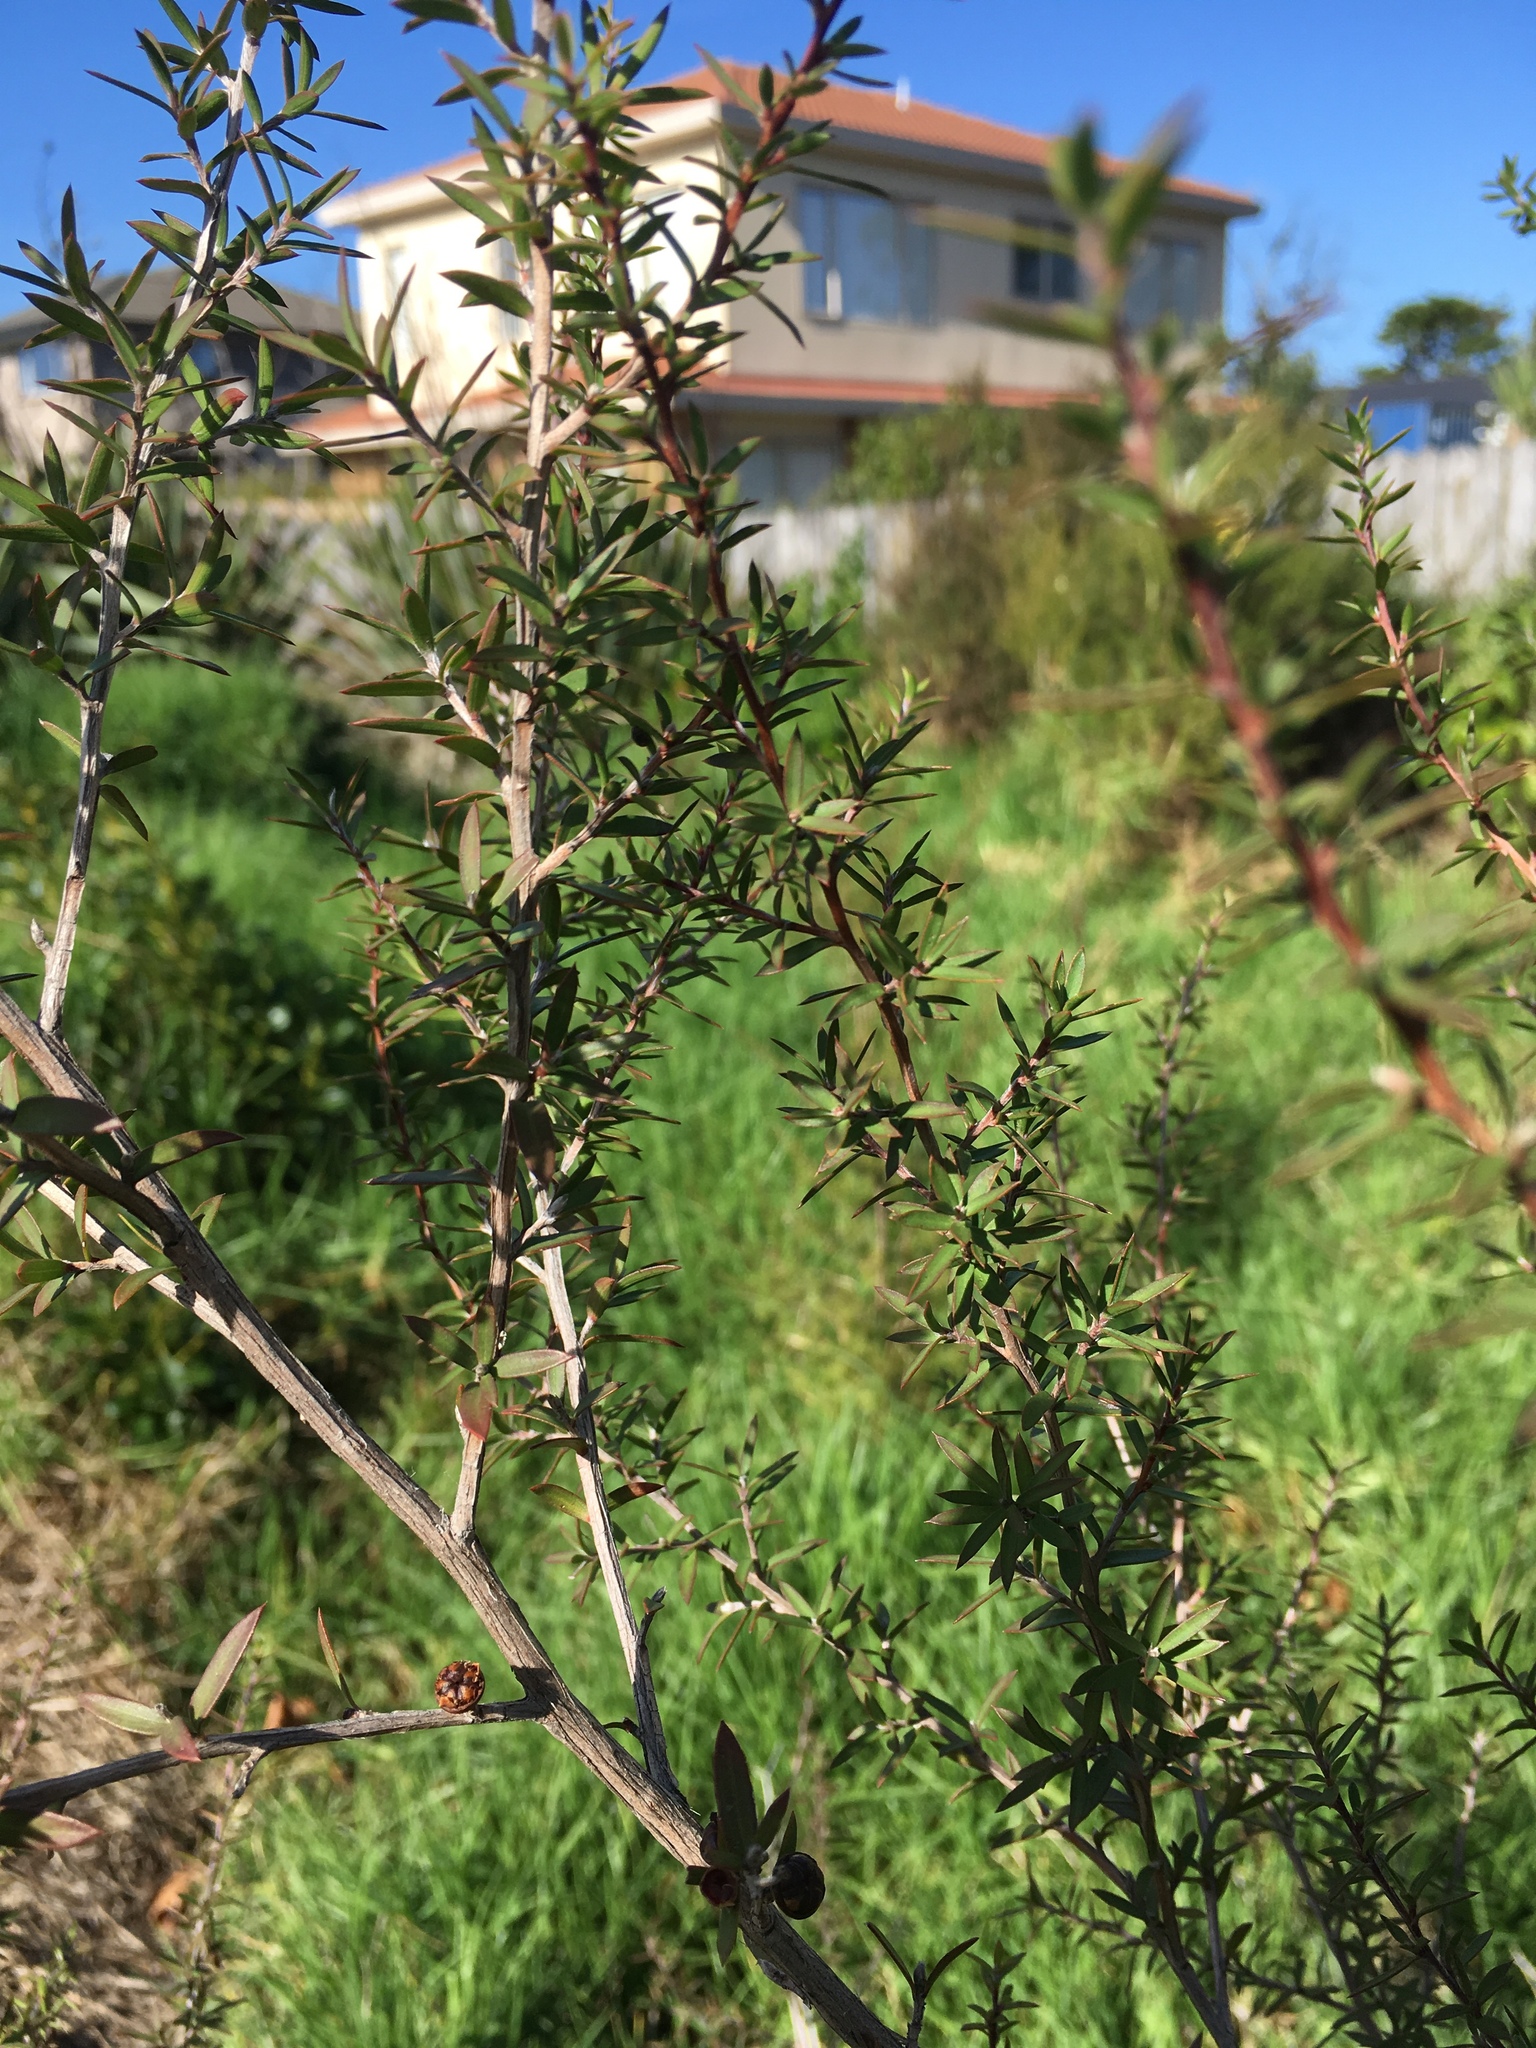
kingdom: Plantae
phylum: Tracheophyta
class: Magnoliopsida
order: Myrtales
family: Myrtaceae
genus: Leptospermum
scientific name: Leptospermum scoparium
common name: Broom tea-tree
